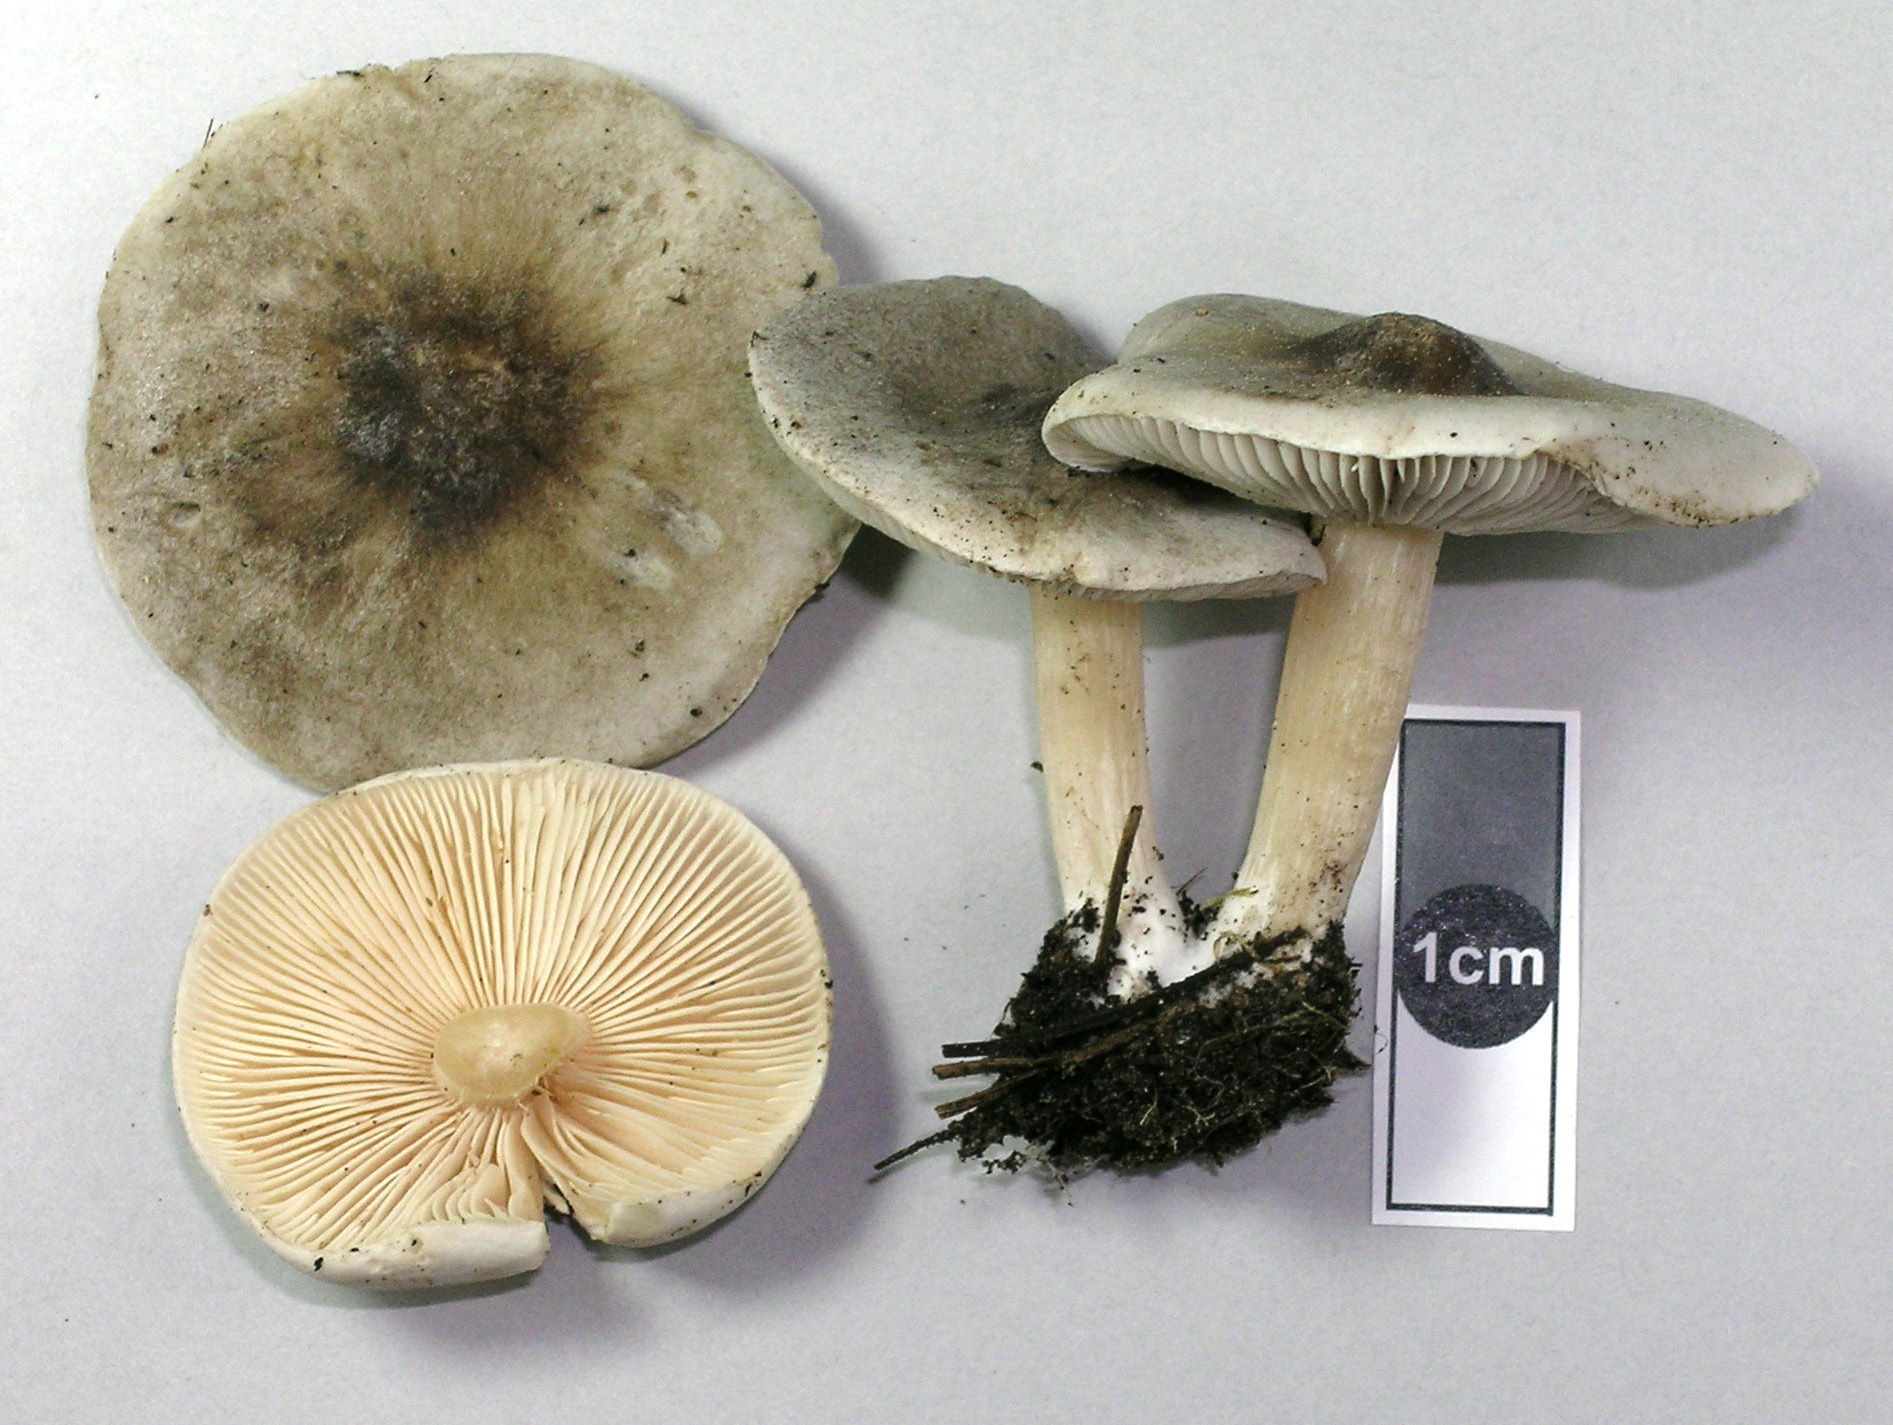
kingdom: Fungi
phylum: Basidiomycota
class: Agaricomycetes
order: Agaricales
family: Tricholomataceae
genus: Melanoleuca
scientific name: Melanoleuca exscissa
